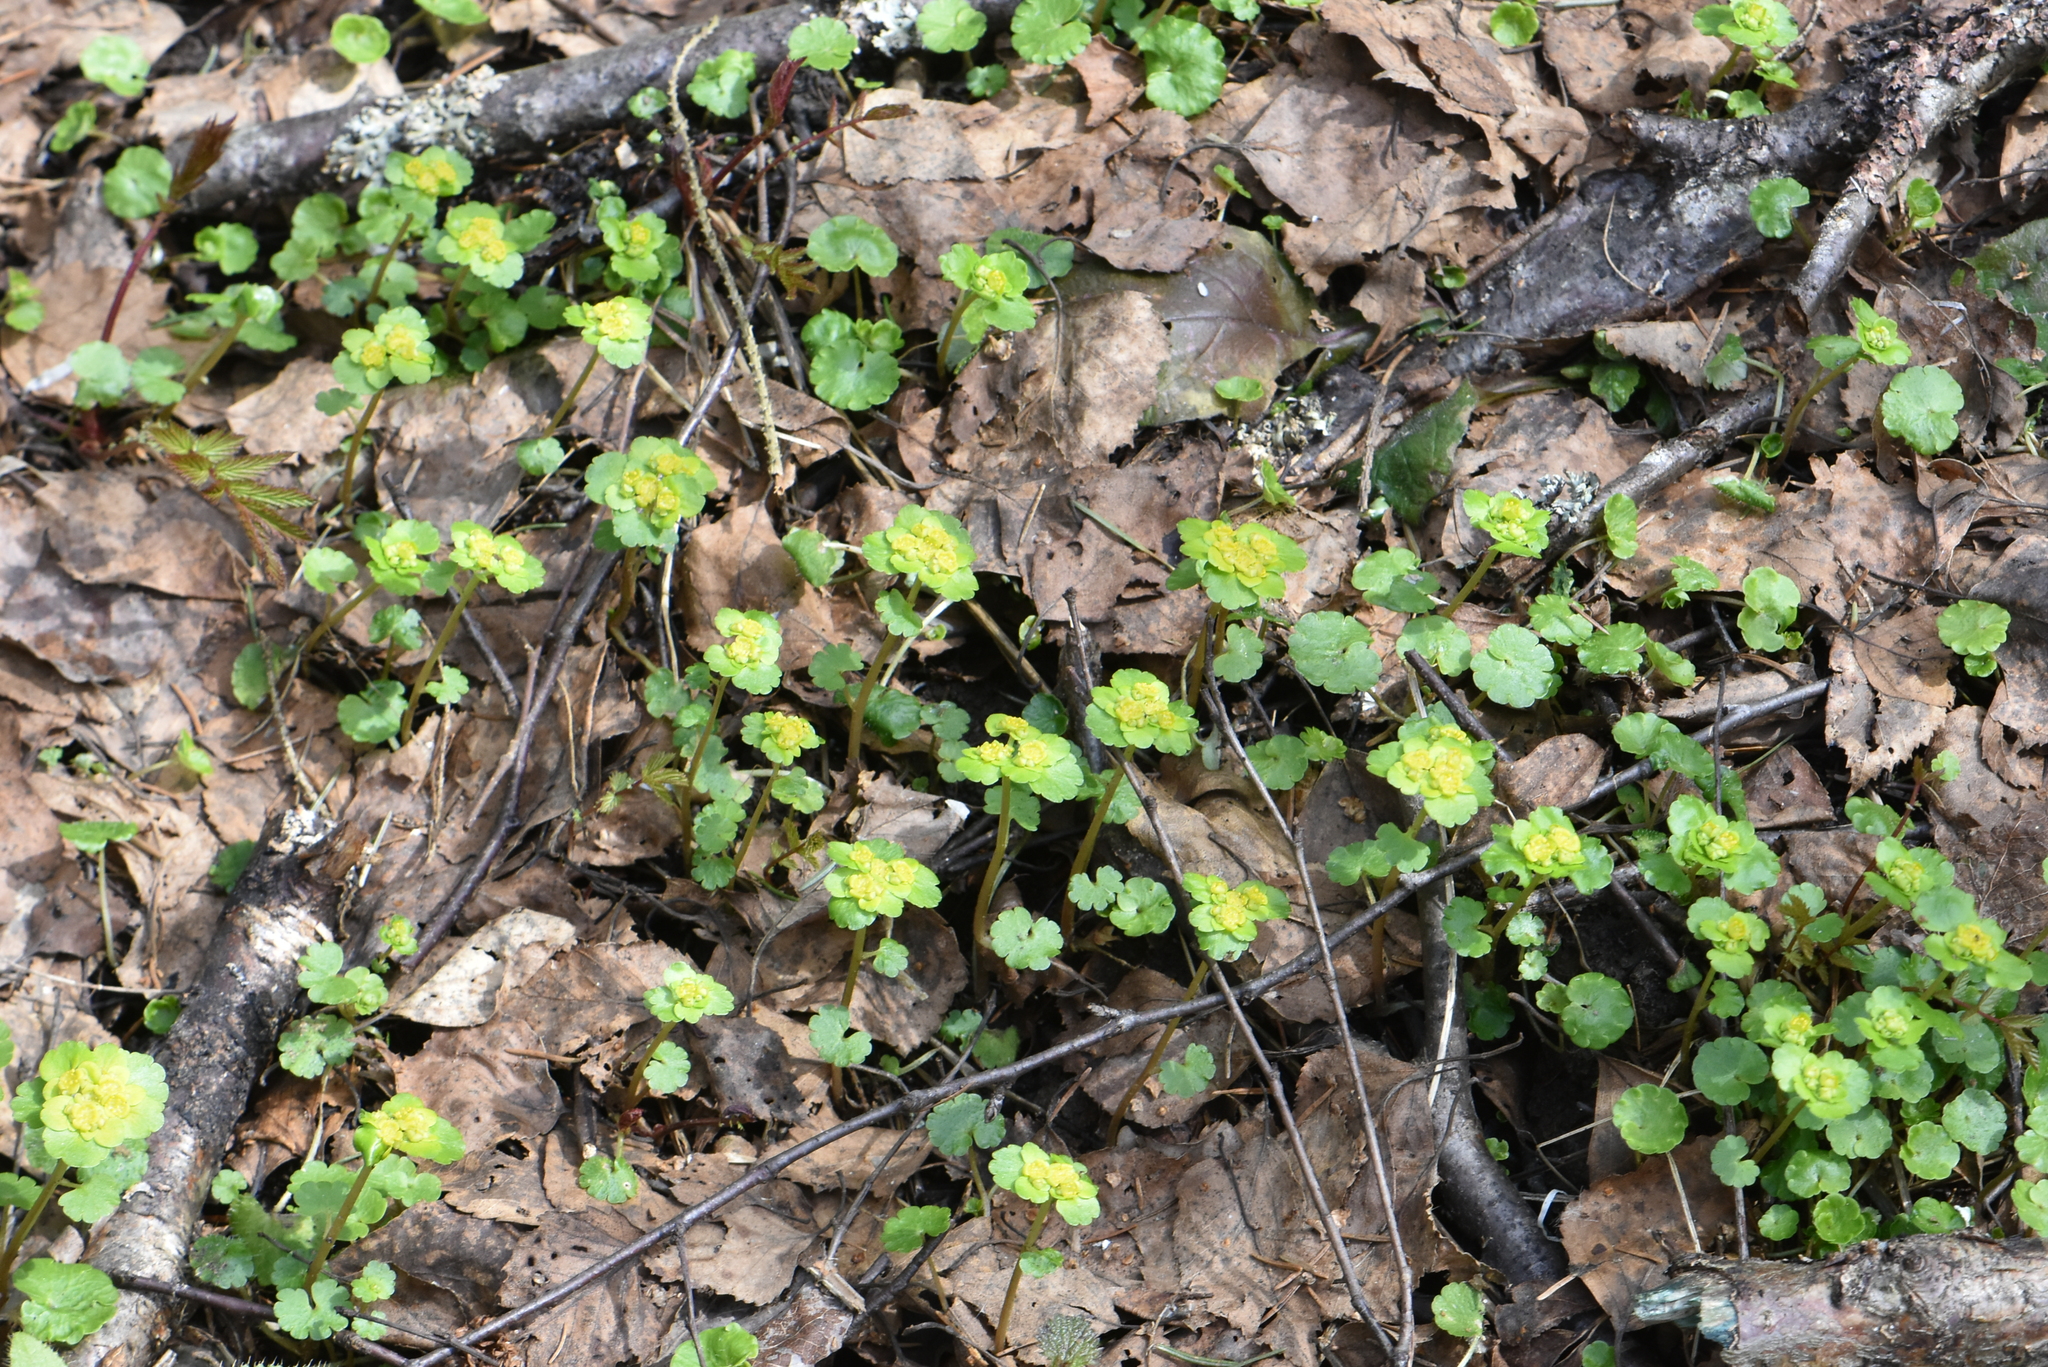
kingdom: Plantae
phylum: Tracheophyta
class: Magnoliopsida
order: Saxifragales
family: Saxifragaceae
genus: Chrysosplenium
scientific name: Chrysosplenium alternifolium
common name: Alternate-leaved golden-saxifrage
